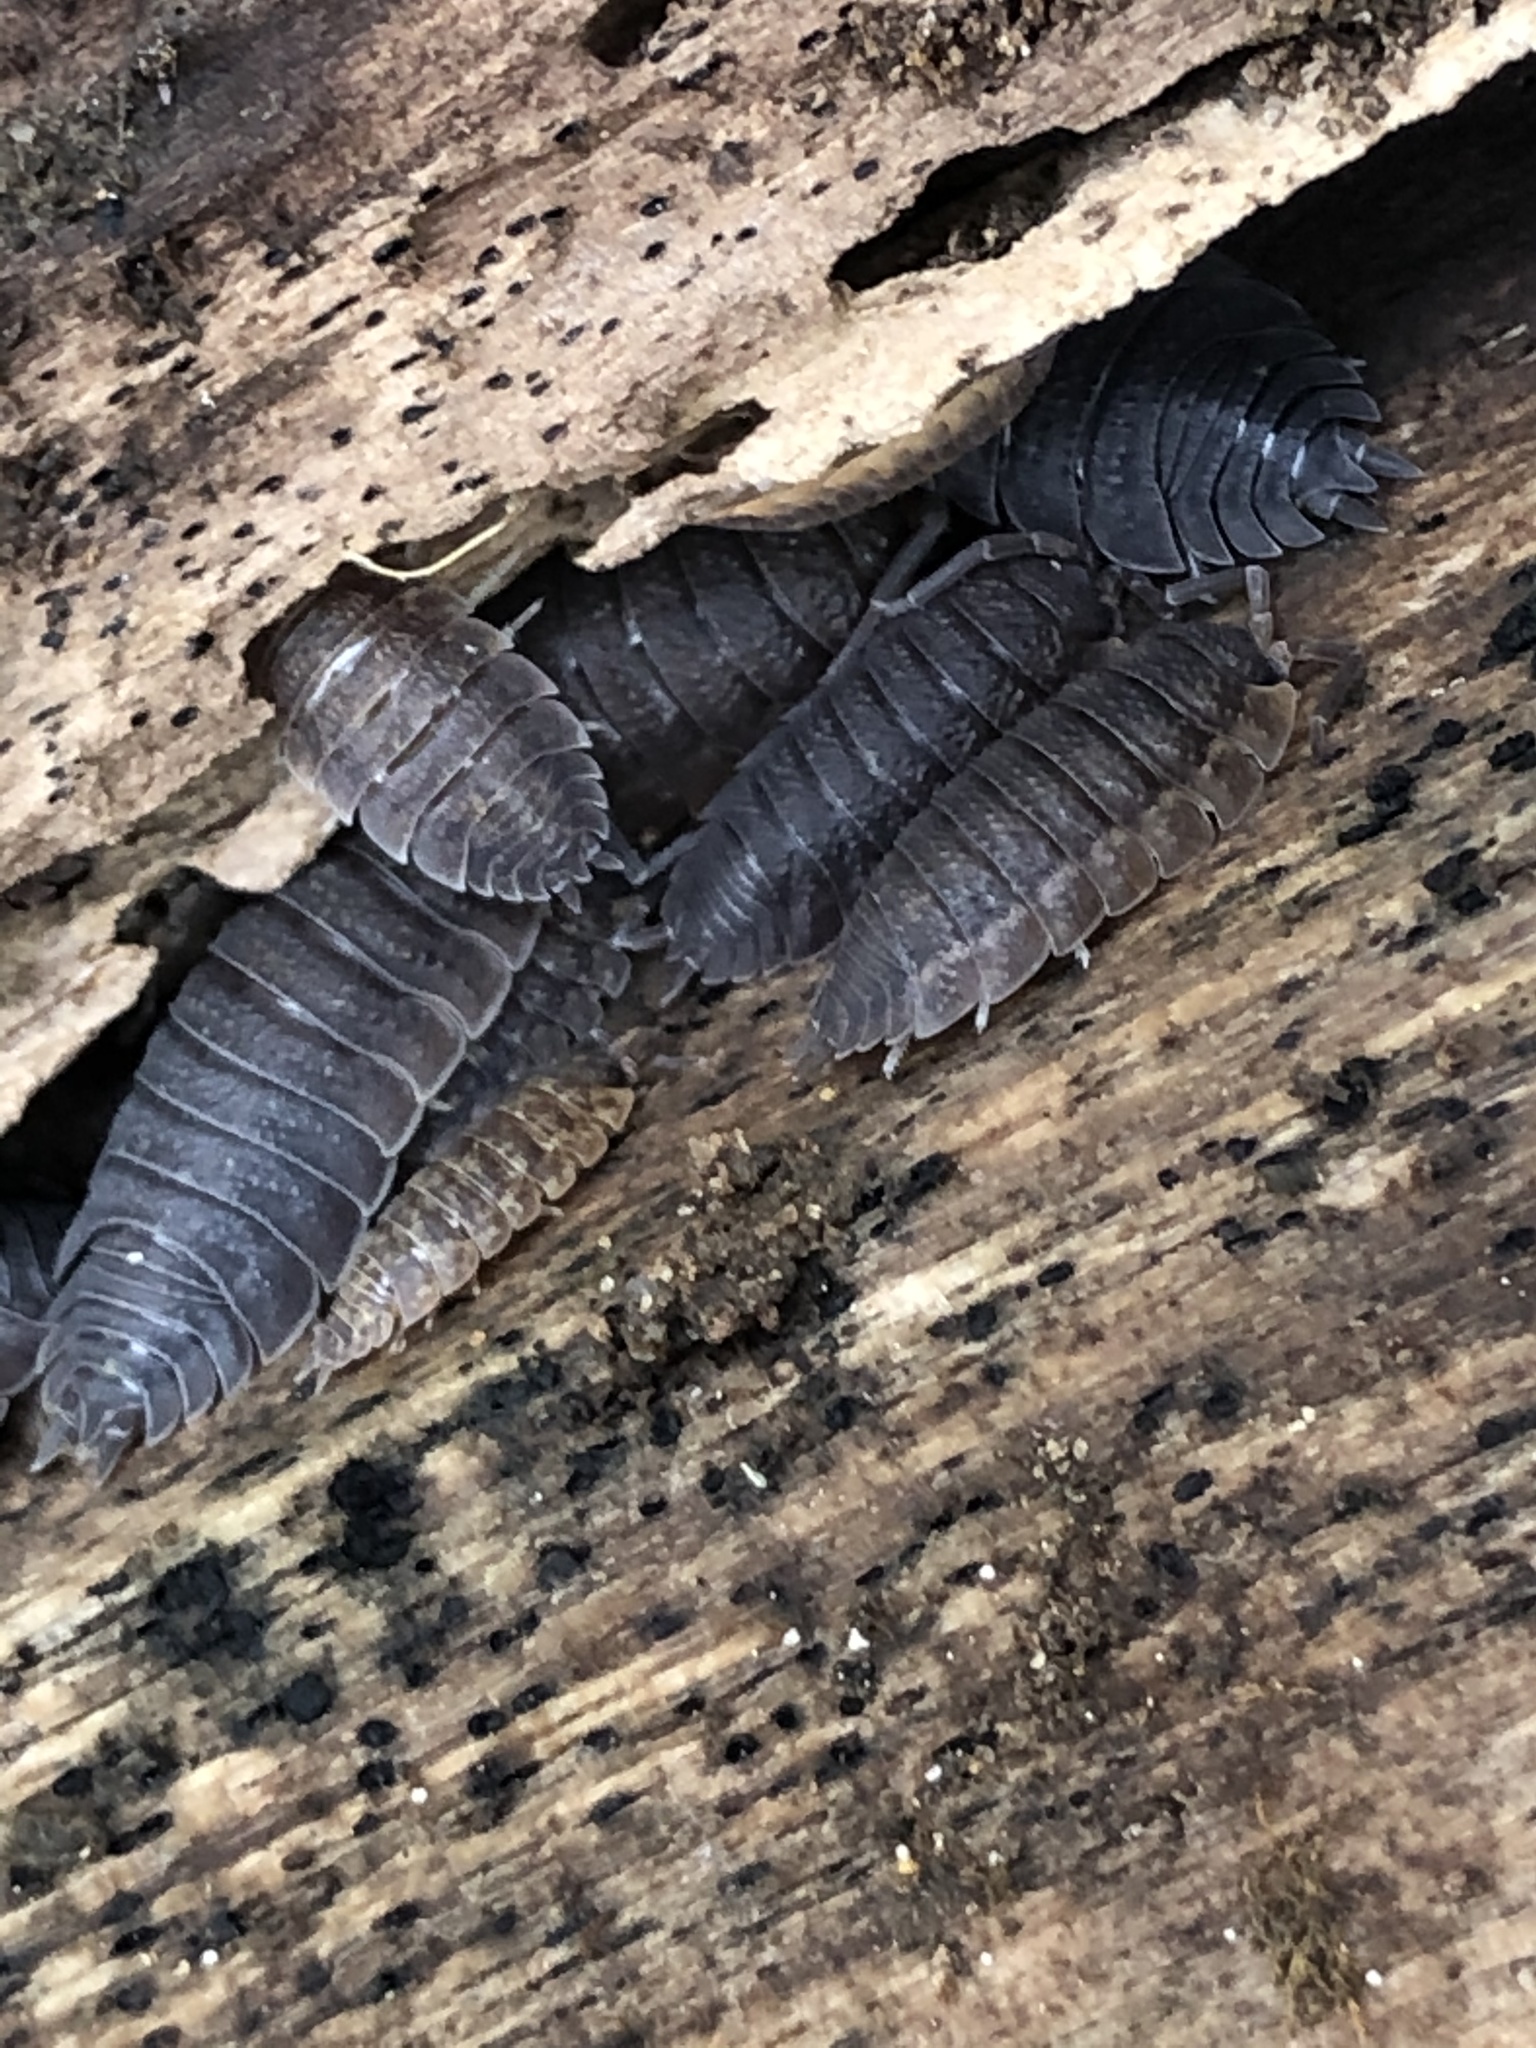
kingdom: Animalia
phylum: Arthropoda
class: Malacostraca
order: Isopoda
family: Porcellionidae
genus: Porcellio
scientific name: Porcellio scaber
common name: Common rough woodlouse
